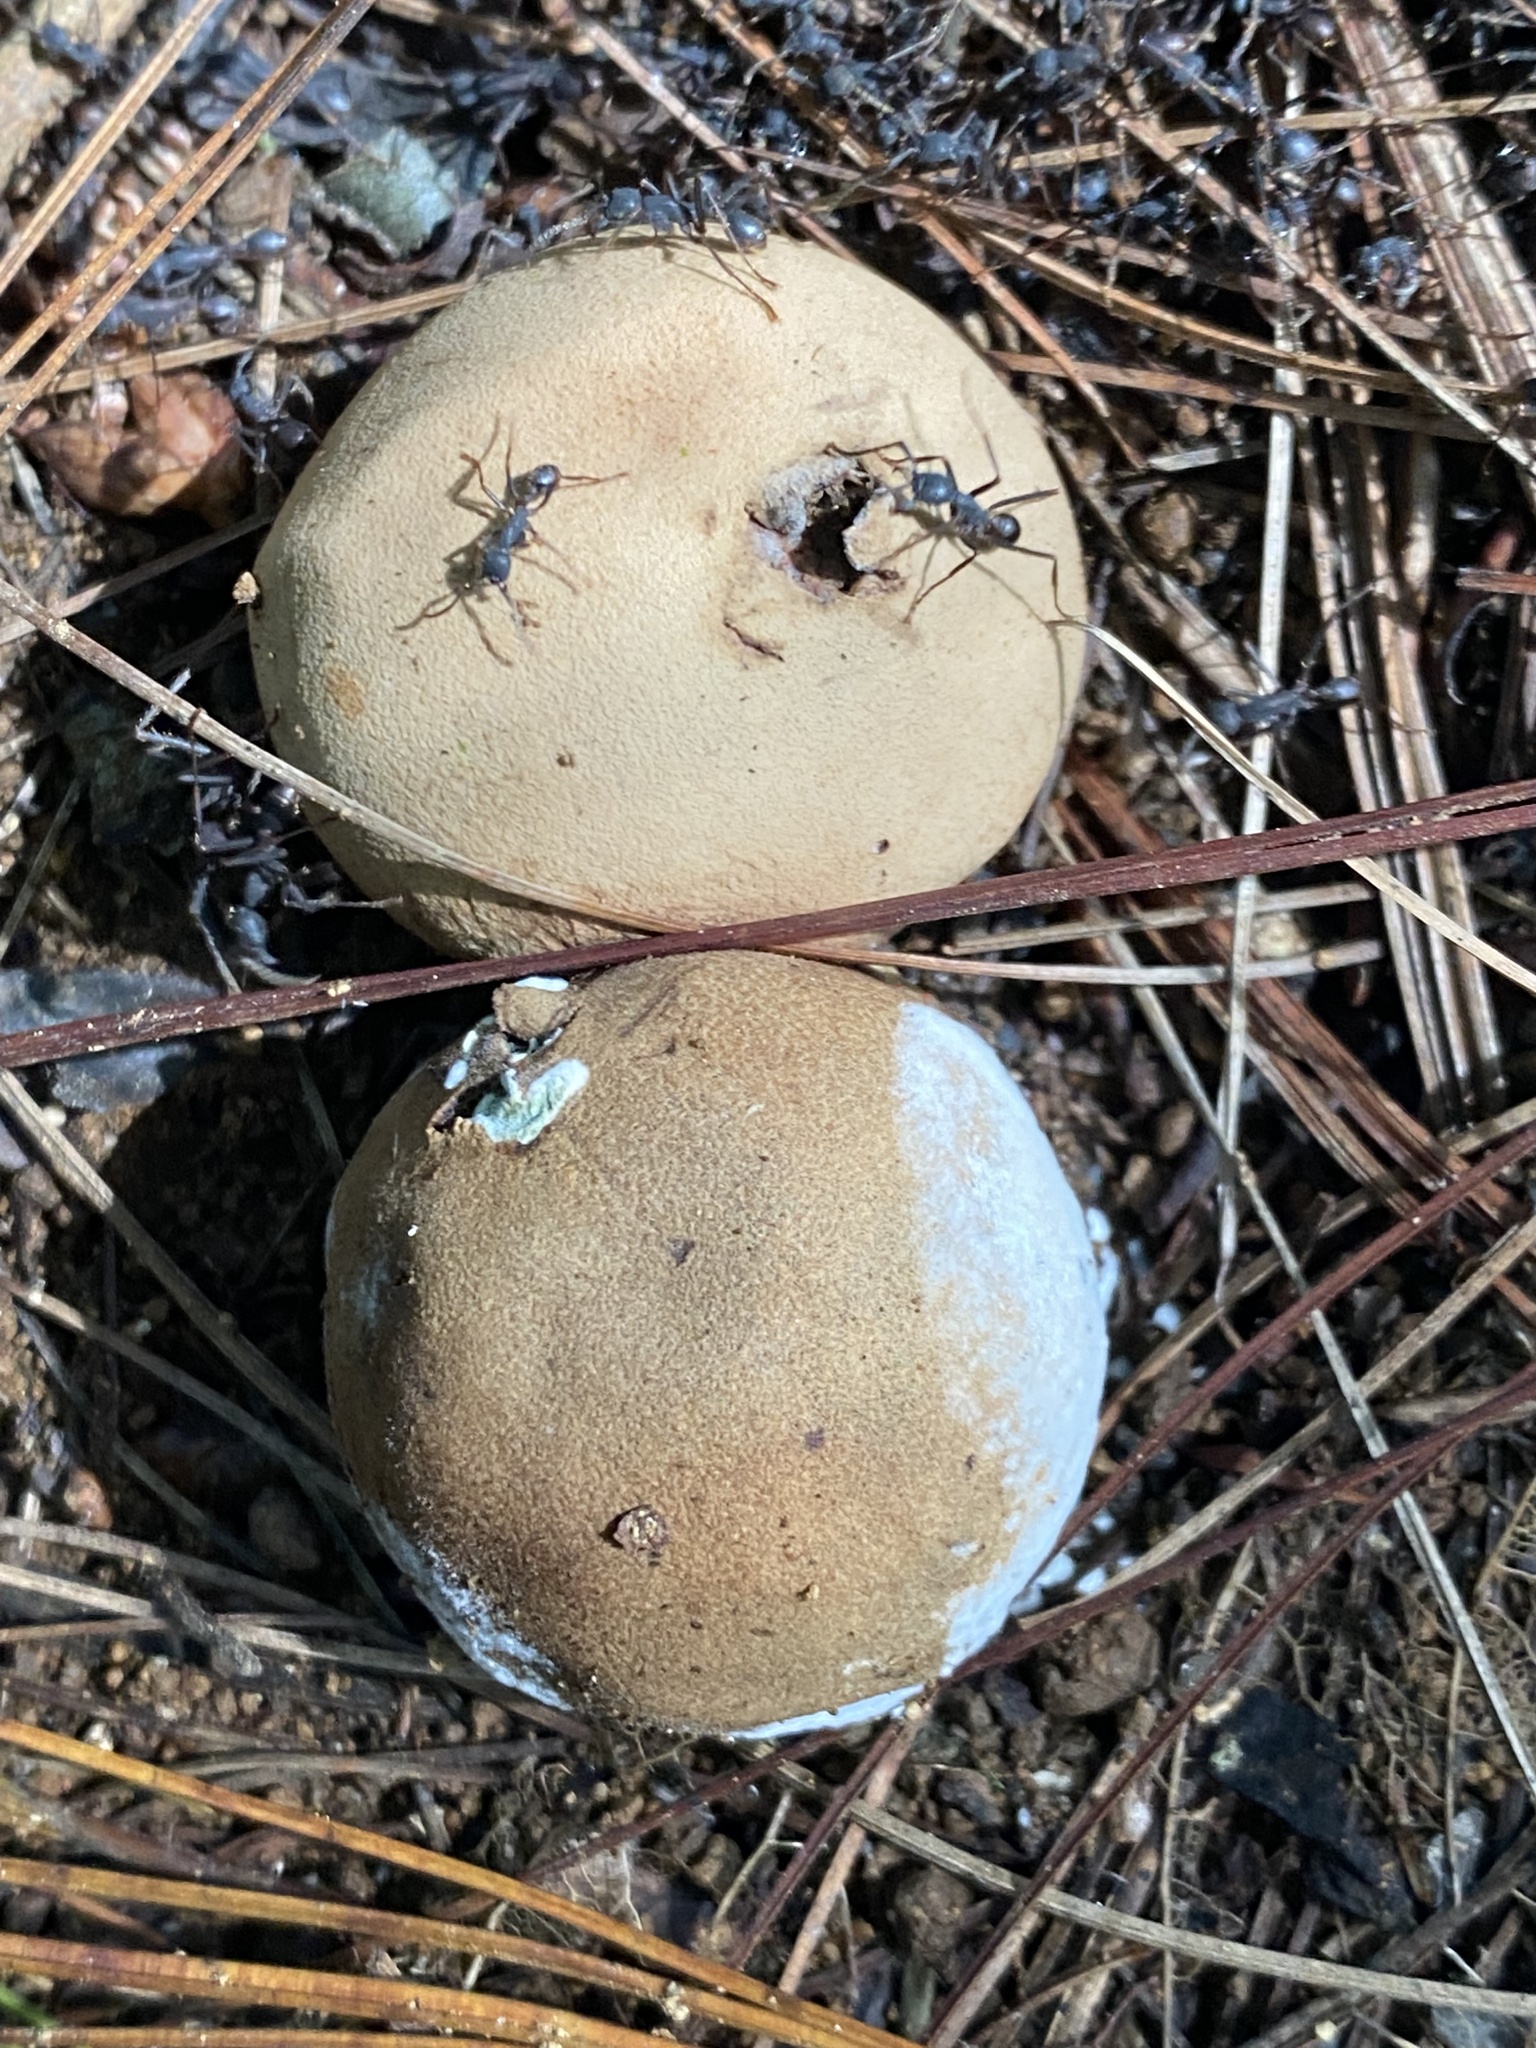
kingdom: Animalia
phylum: Arthropoda
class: Insecta
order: Hymenoptera
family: Formicidae
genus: Eciton
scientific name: Eciton burchellii
